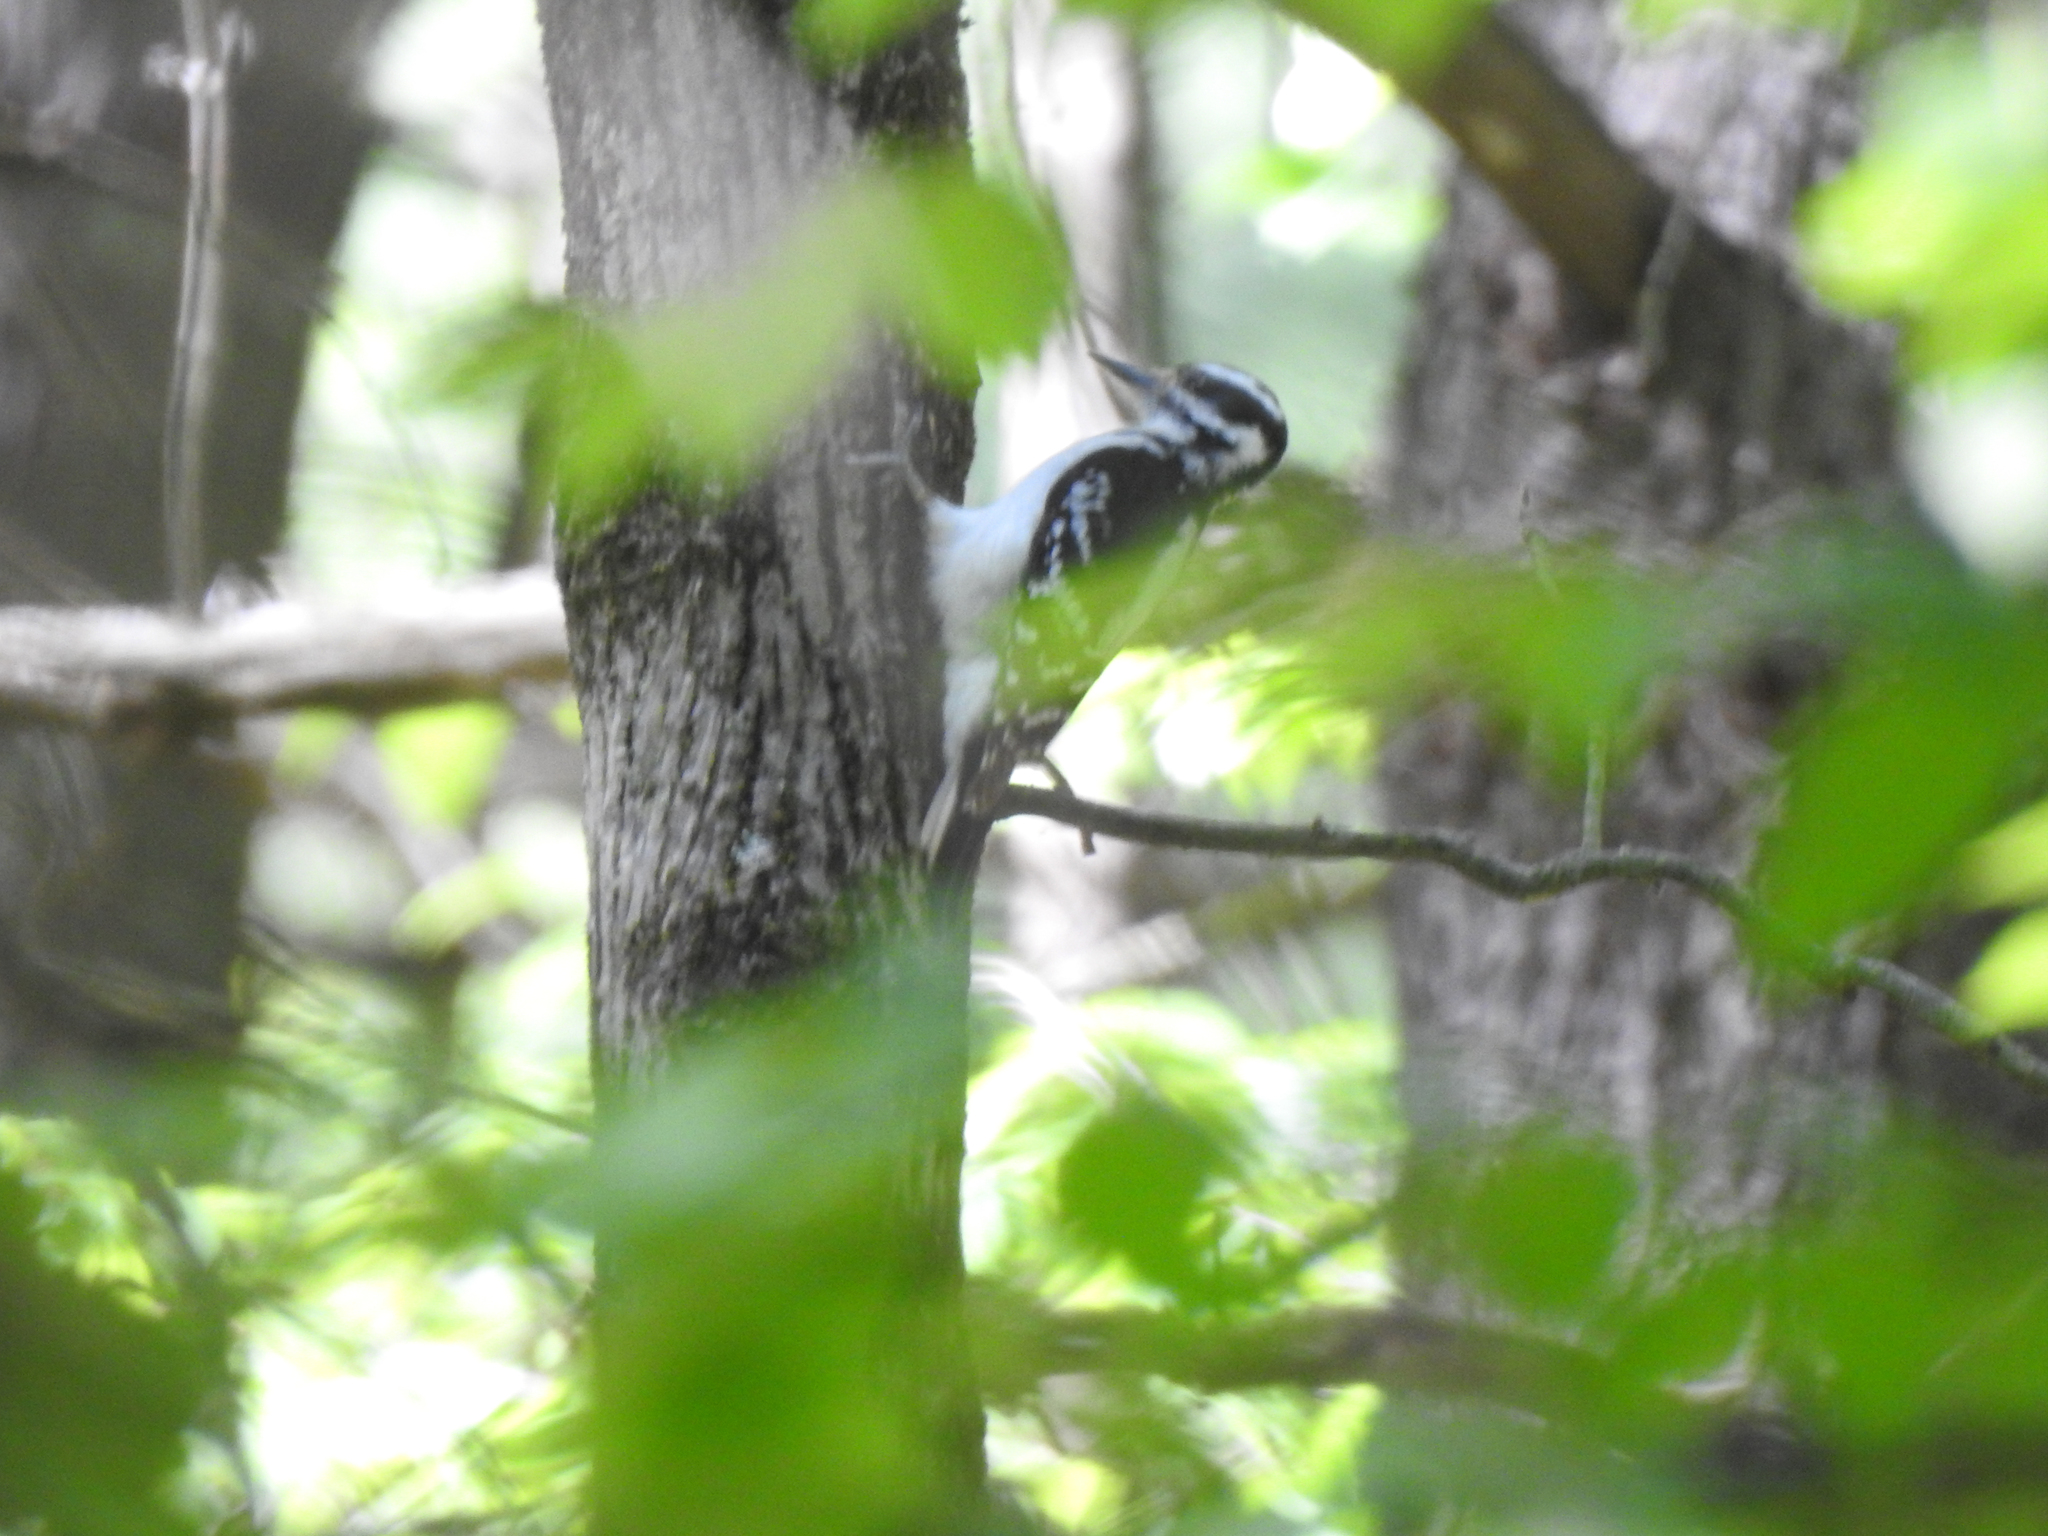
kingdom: Animalia
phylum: Chordata
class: Aves
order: Piciformes
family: Picidae
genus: Leuconotopicus
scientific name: Leuconotopicus villosus
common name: Hairy woodpecker
